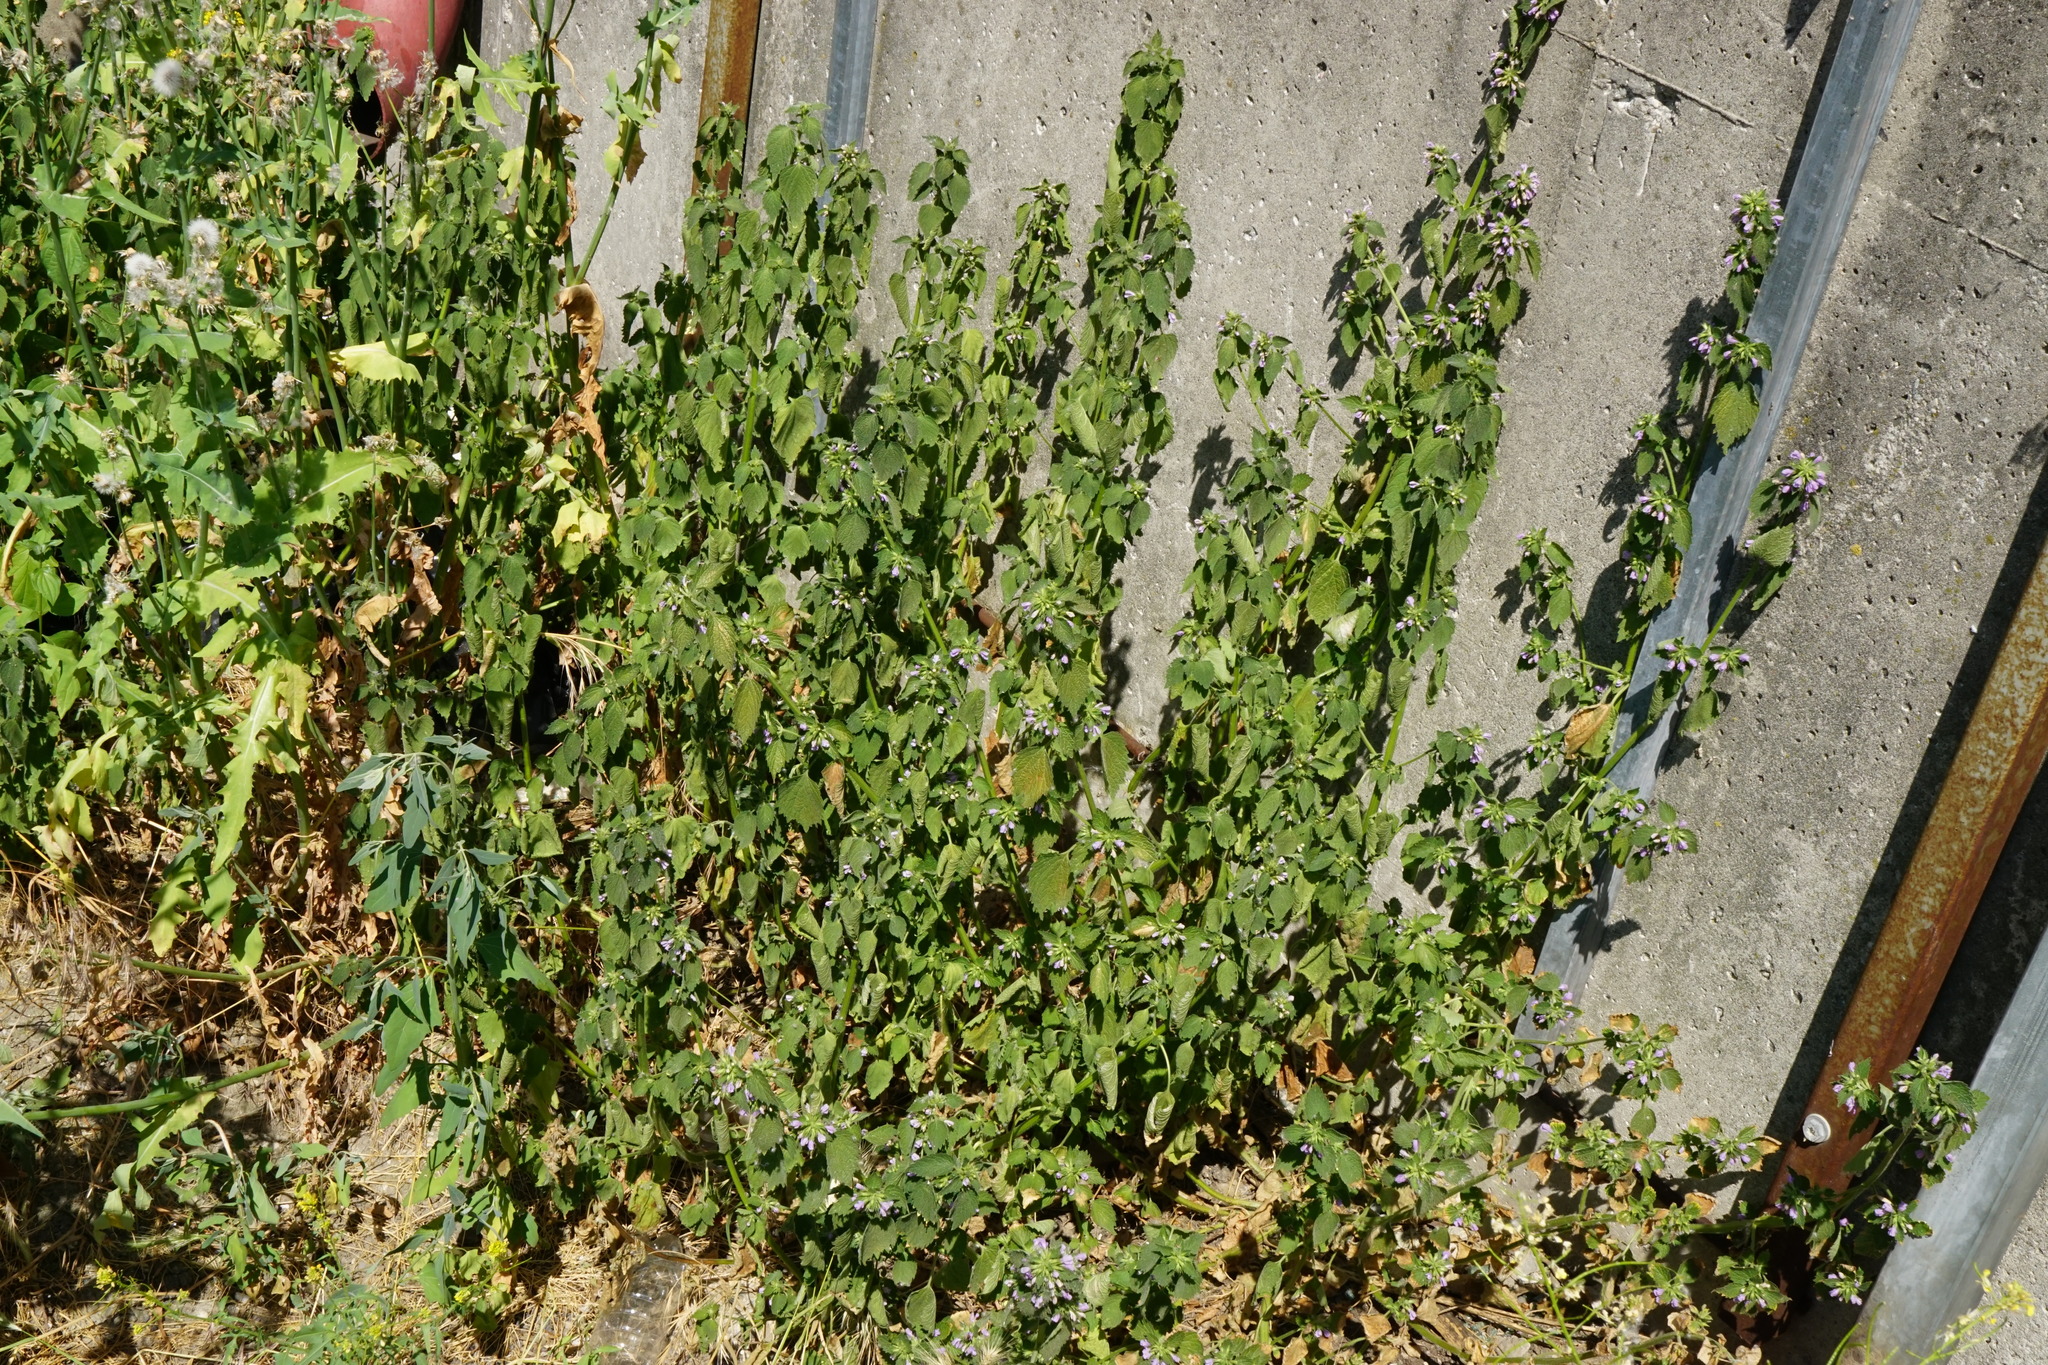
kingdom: Plantae
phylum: Tracheophyta
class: Magnoliopsida
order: Lamiales
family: Lamiaceae
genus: Ballota
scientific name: Ballota nigra
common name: Black horehound
